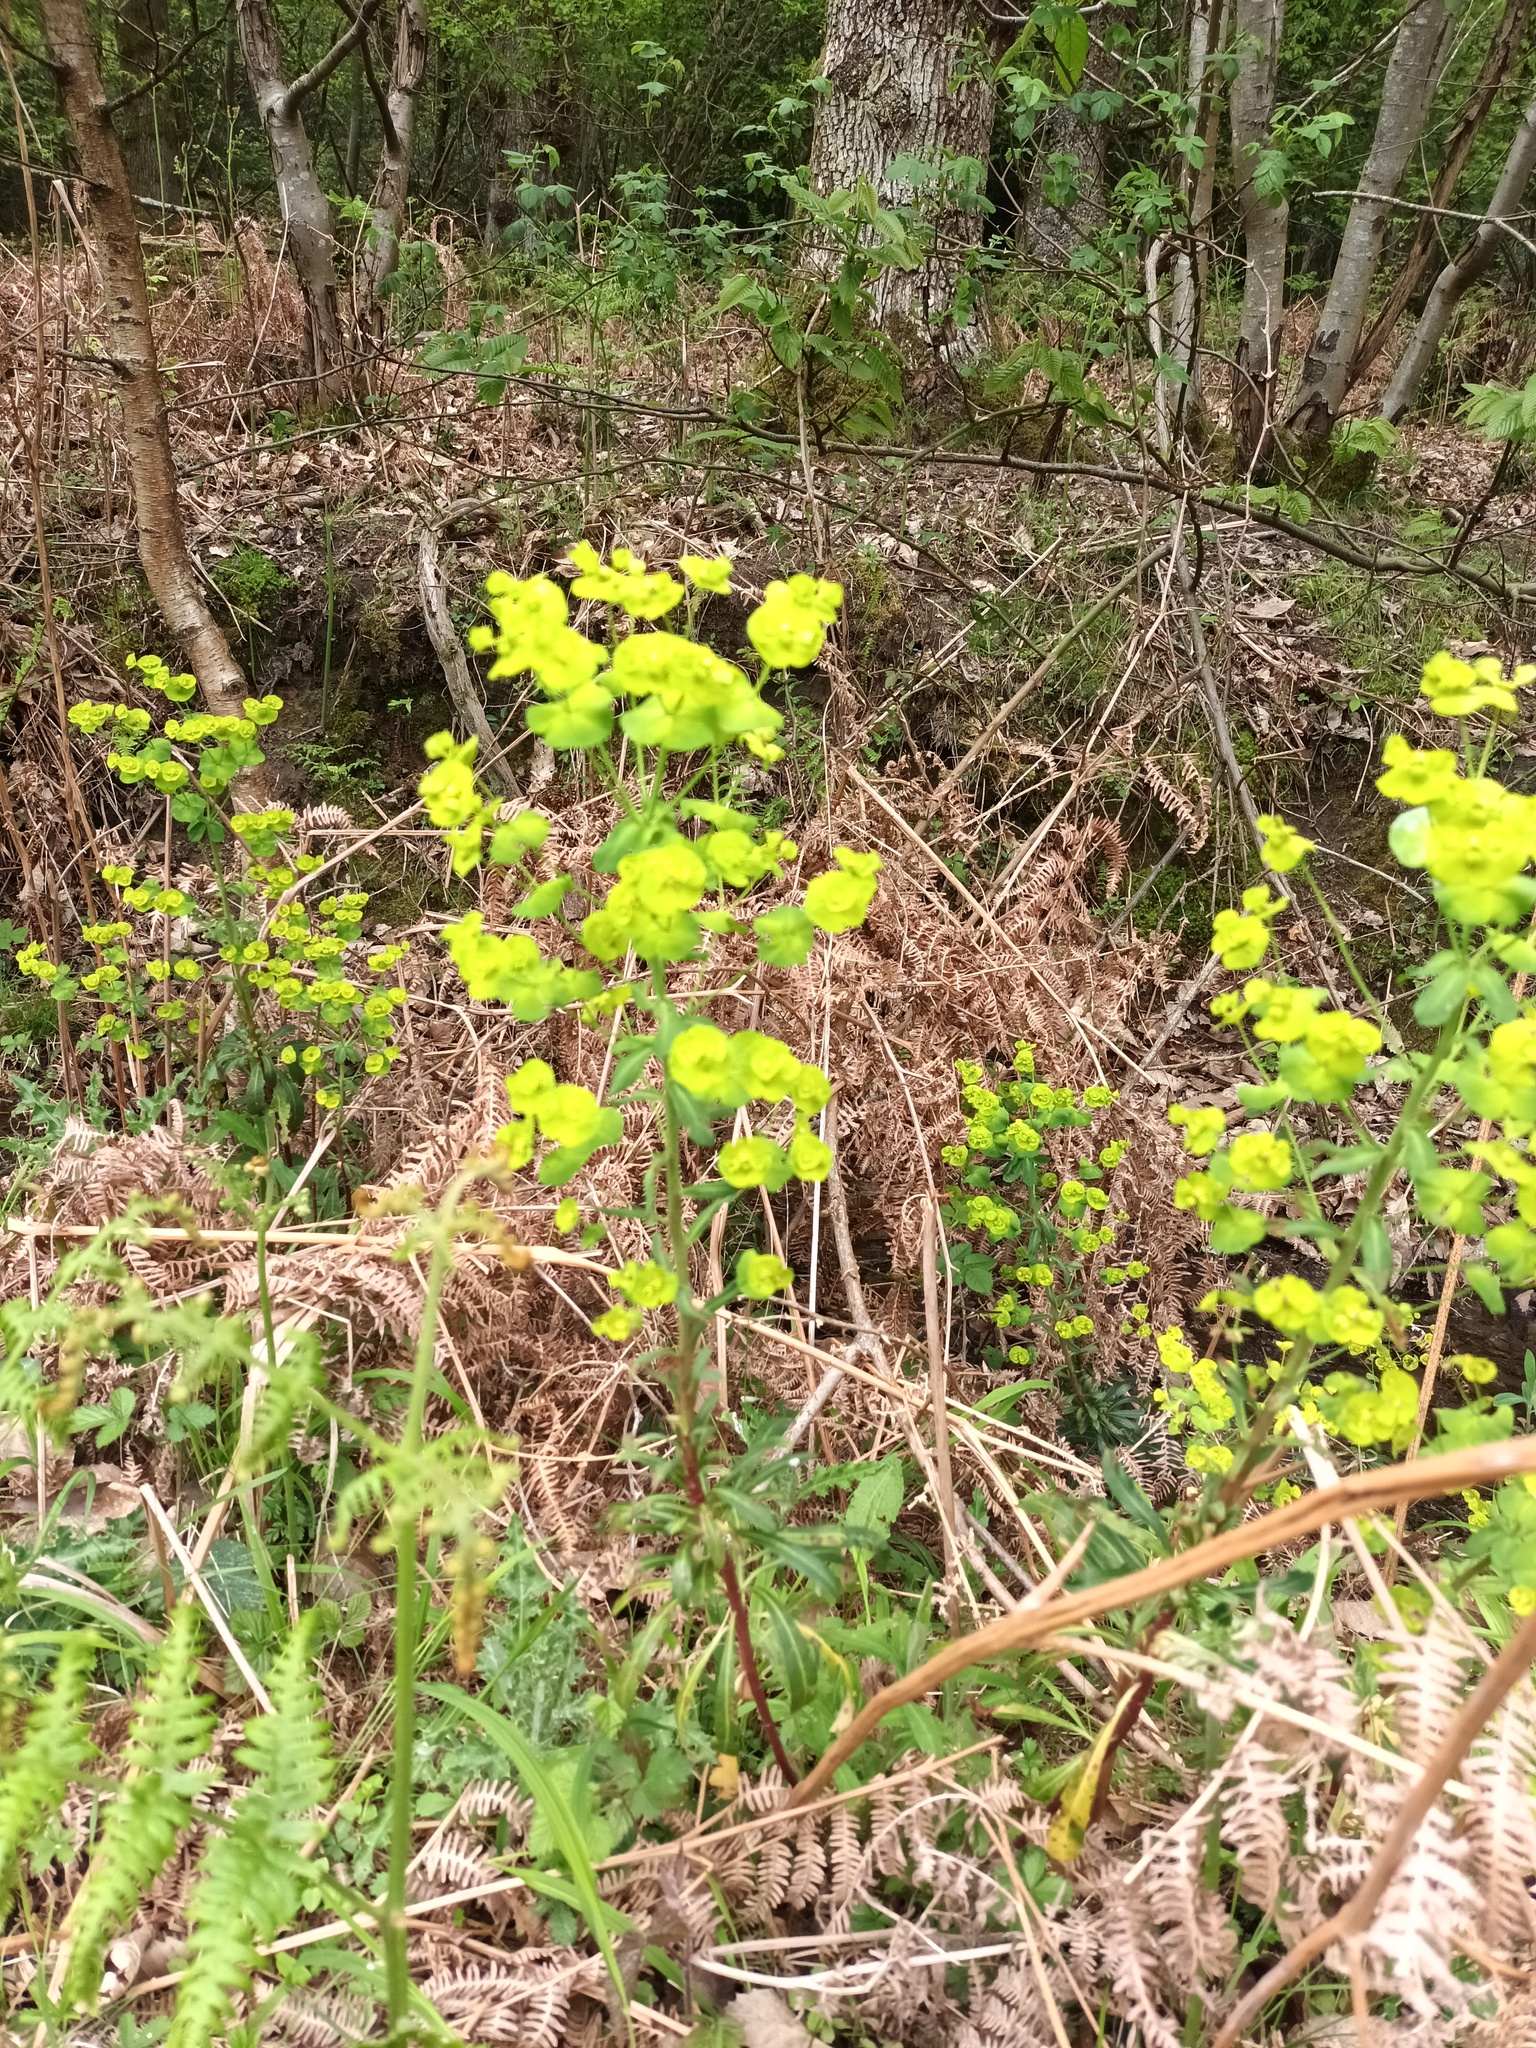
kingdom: Plantae
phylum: Tracheophyta
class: Magnoliopsida
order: Malpighiales
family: Euphorbiaceae
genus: Euphorbia
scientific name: Euphorbia amygdaloides
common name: Wood spurge
